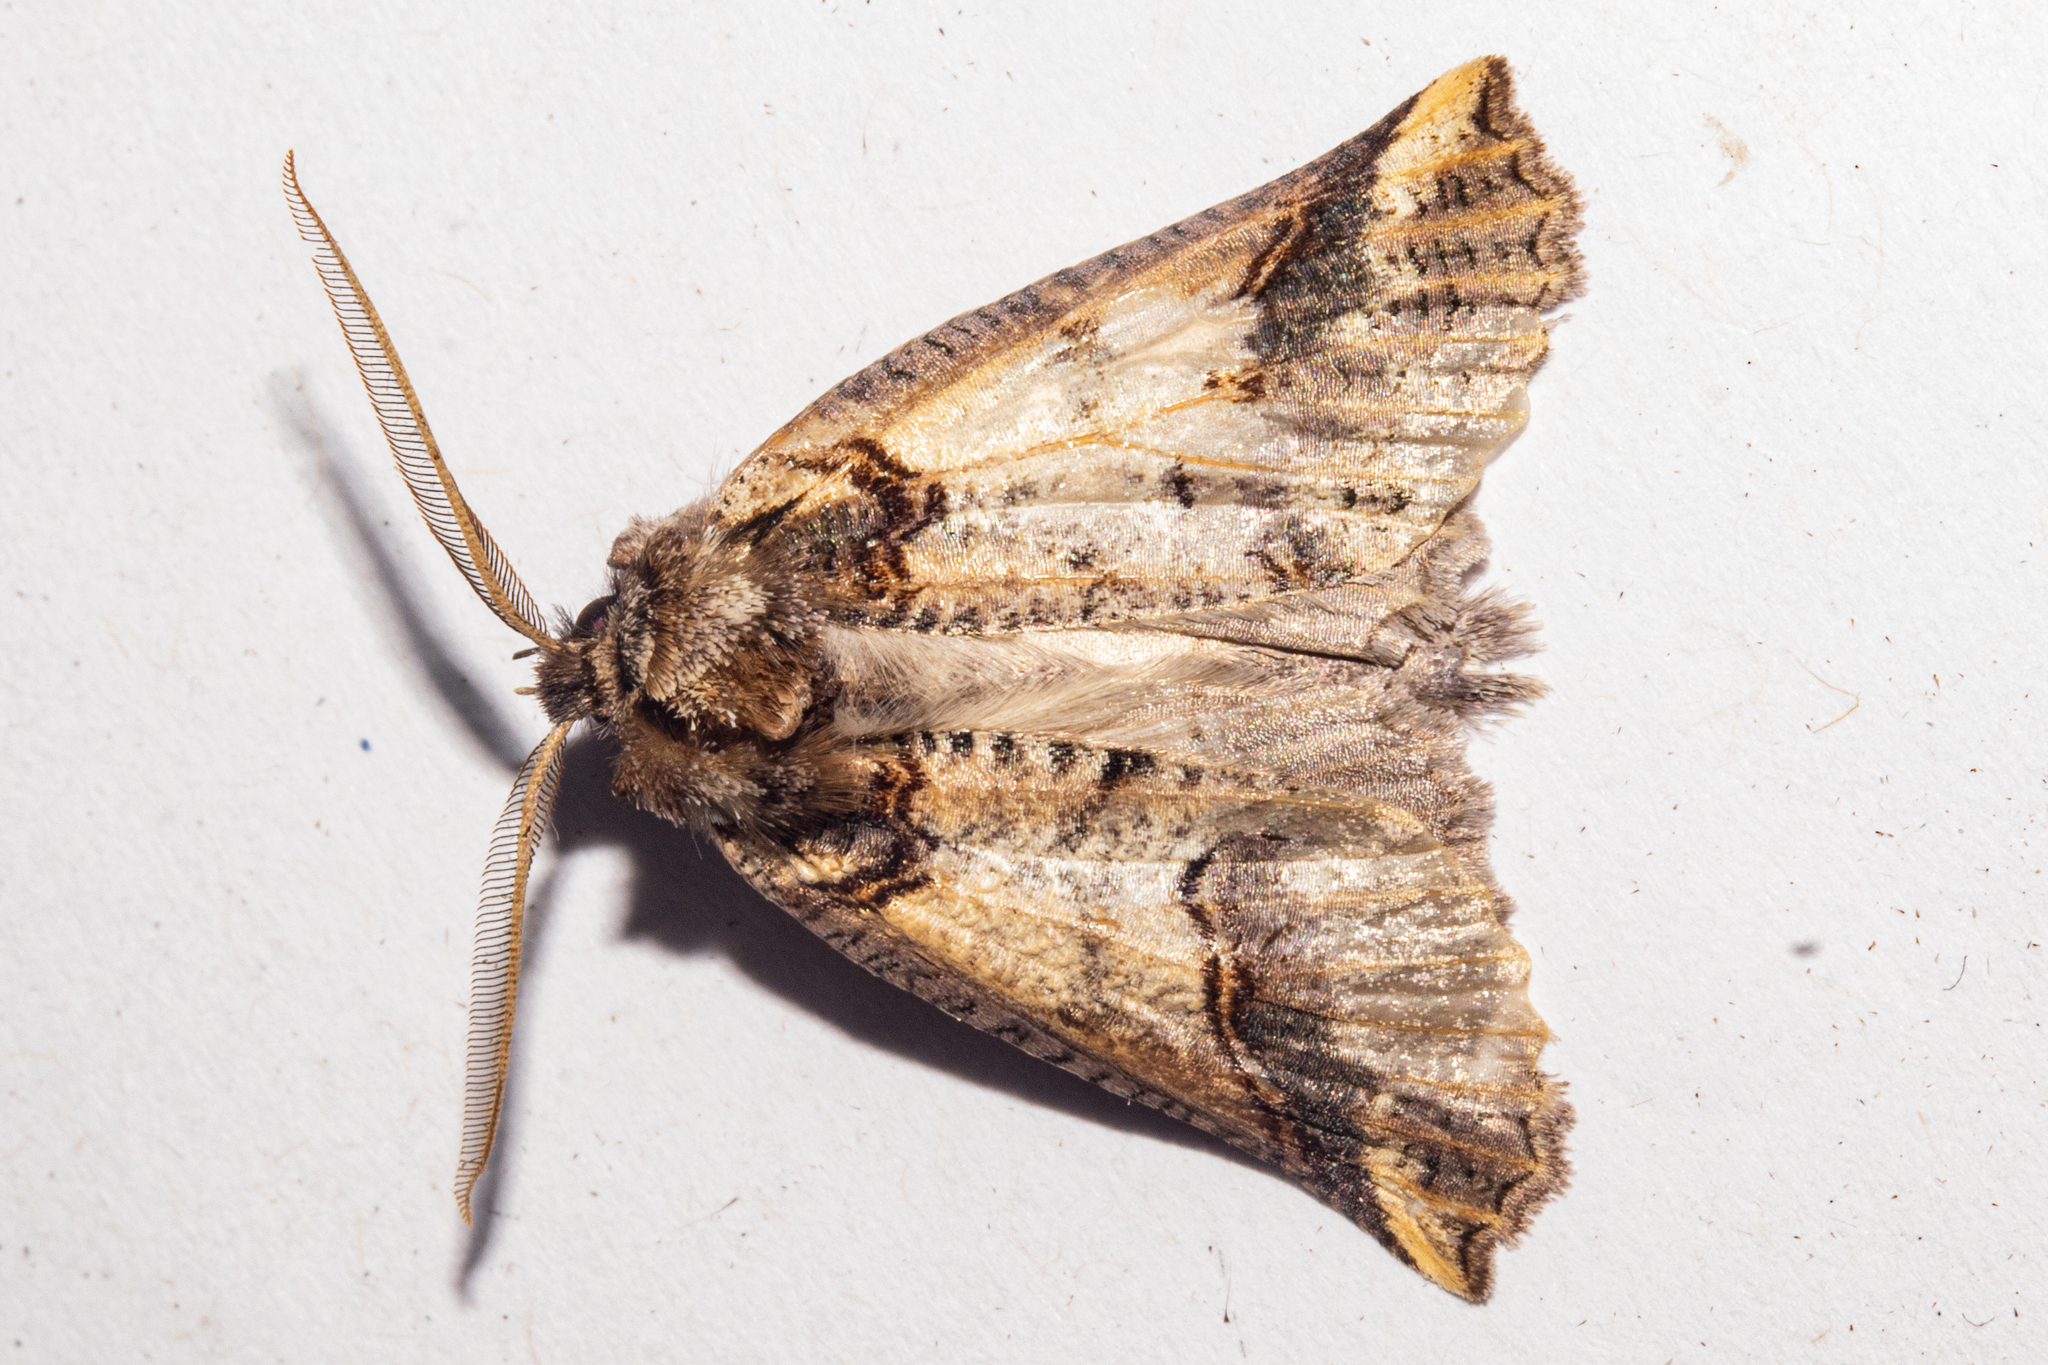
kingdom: Animalia
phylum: Arthropoda
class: Insecta
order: Lepidoptera
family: Geometridae
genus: Declana
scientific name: Declana
